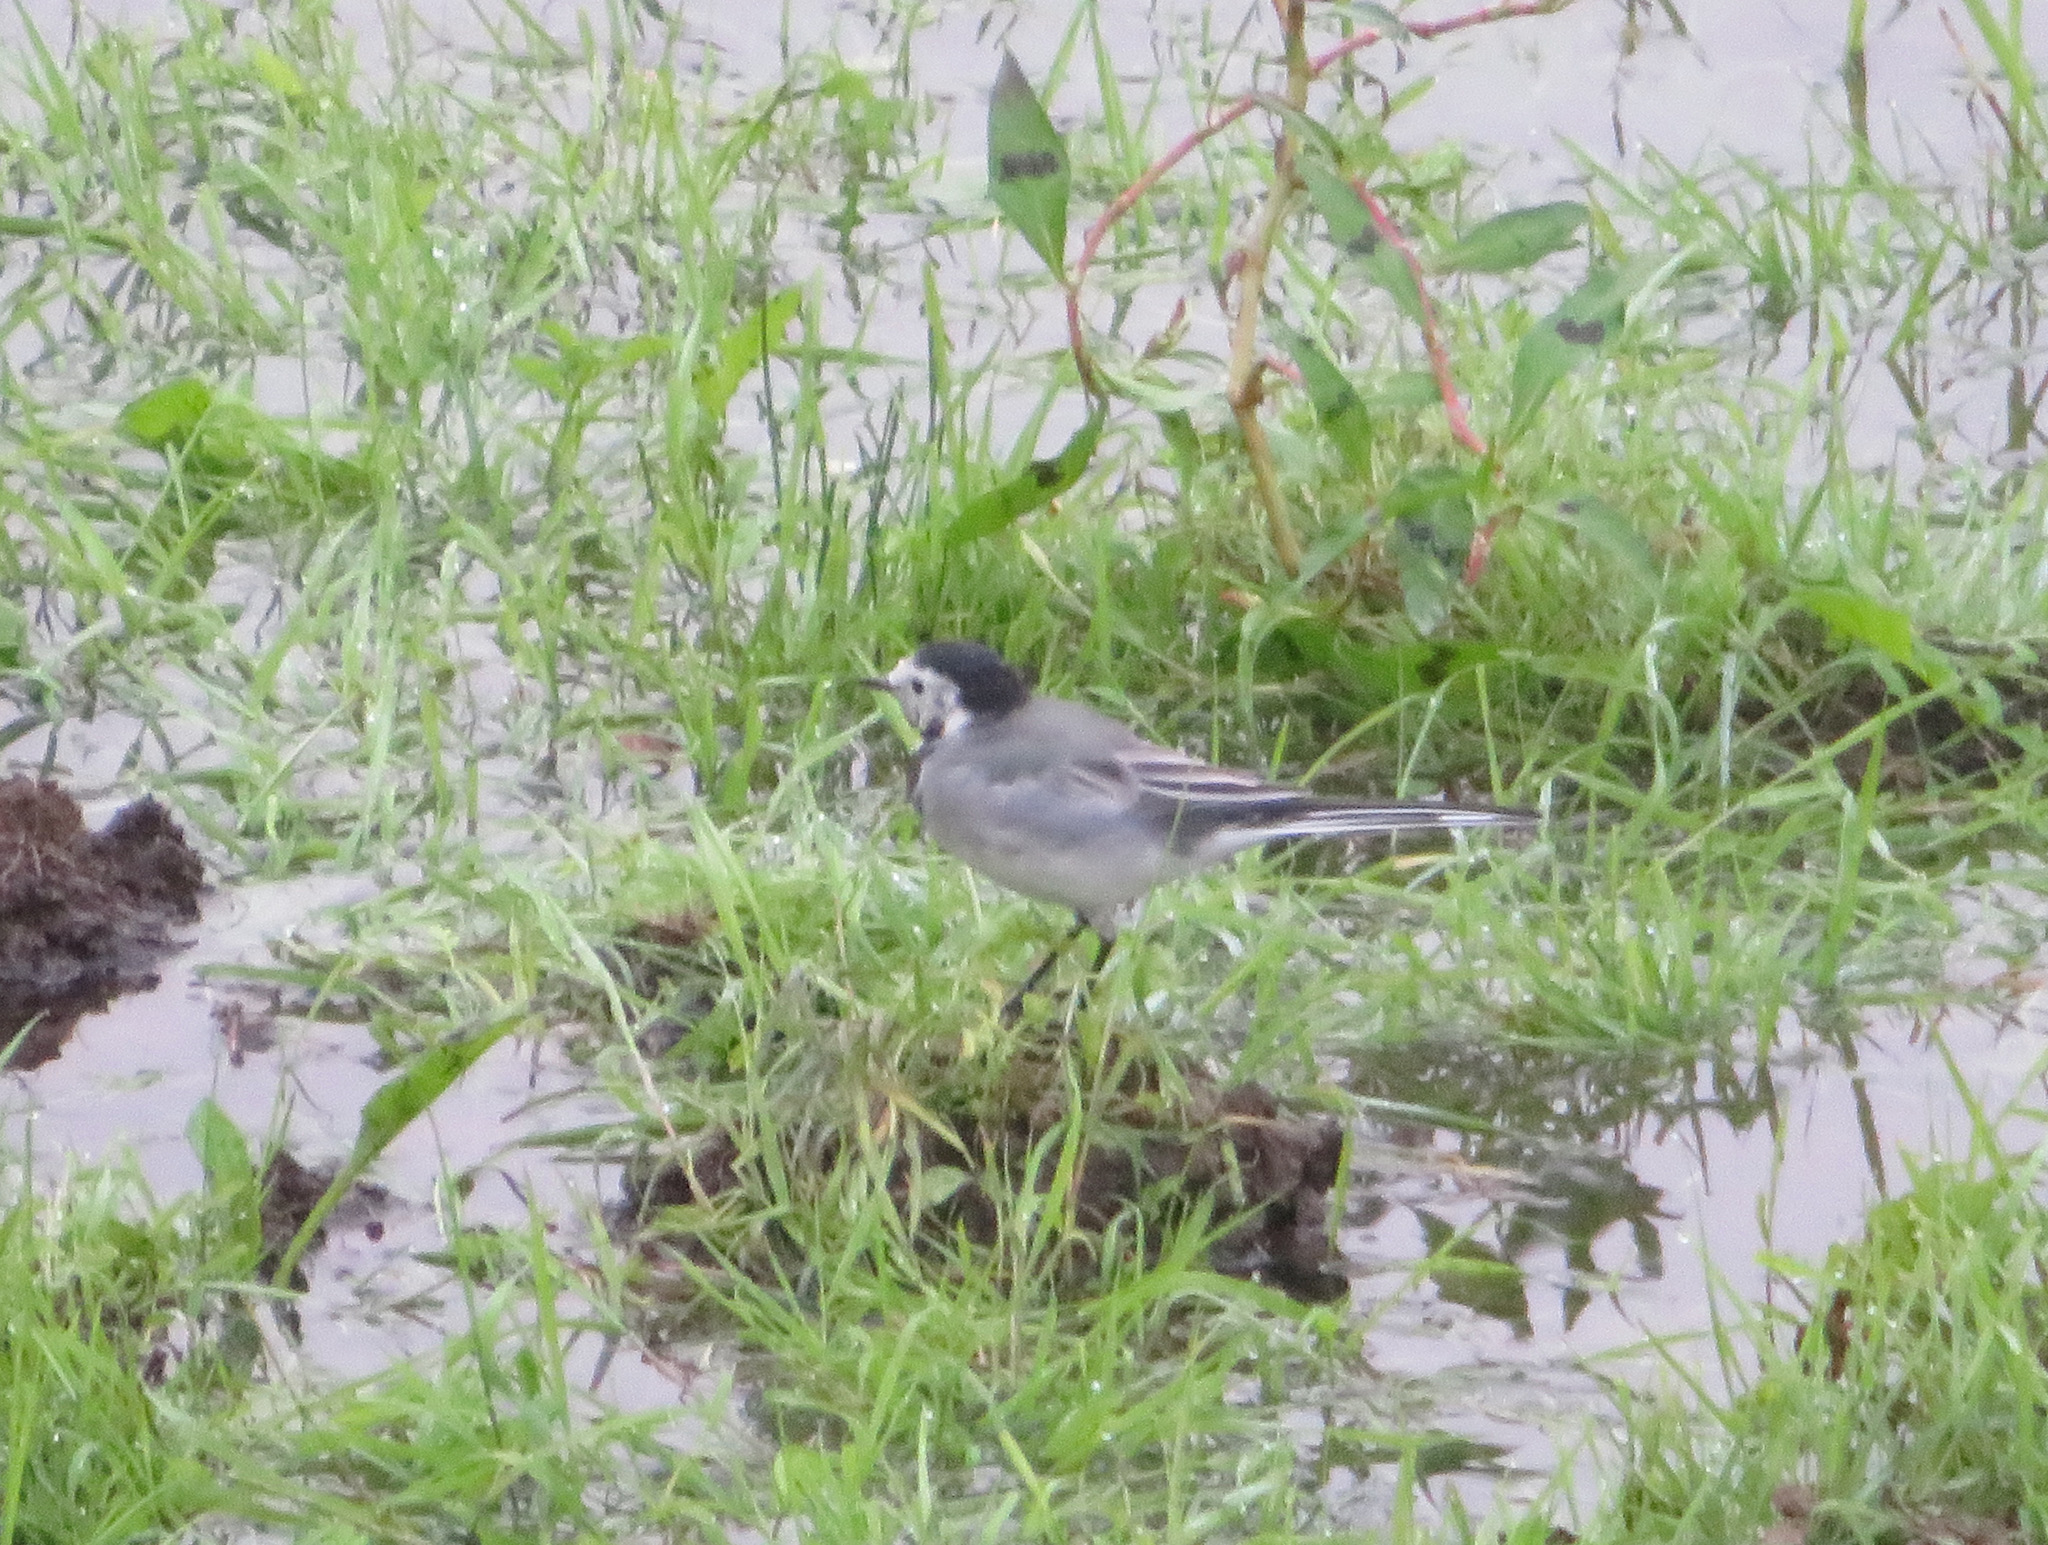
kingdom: Animalia
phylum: Chordata
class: Aves
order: Passeriformes
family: Motacillidae
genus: Motacilla
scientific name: Motacilla alba
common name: White wagtail
